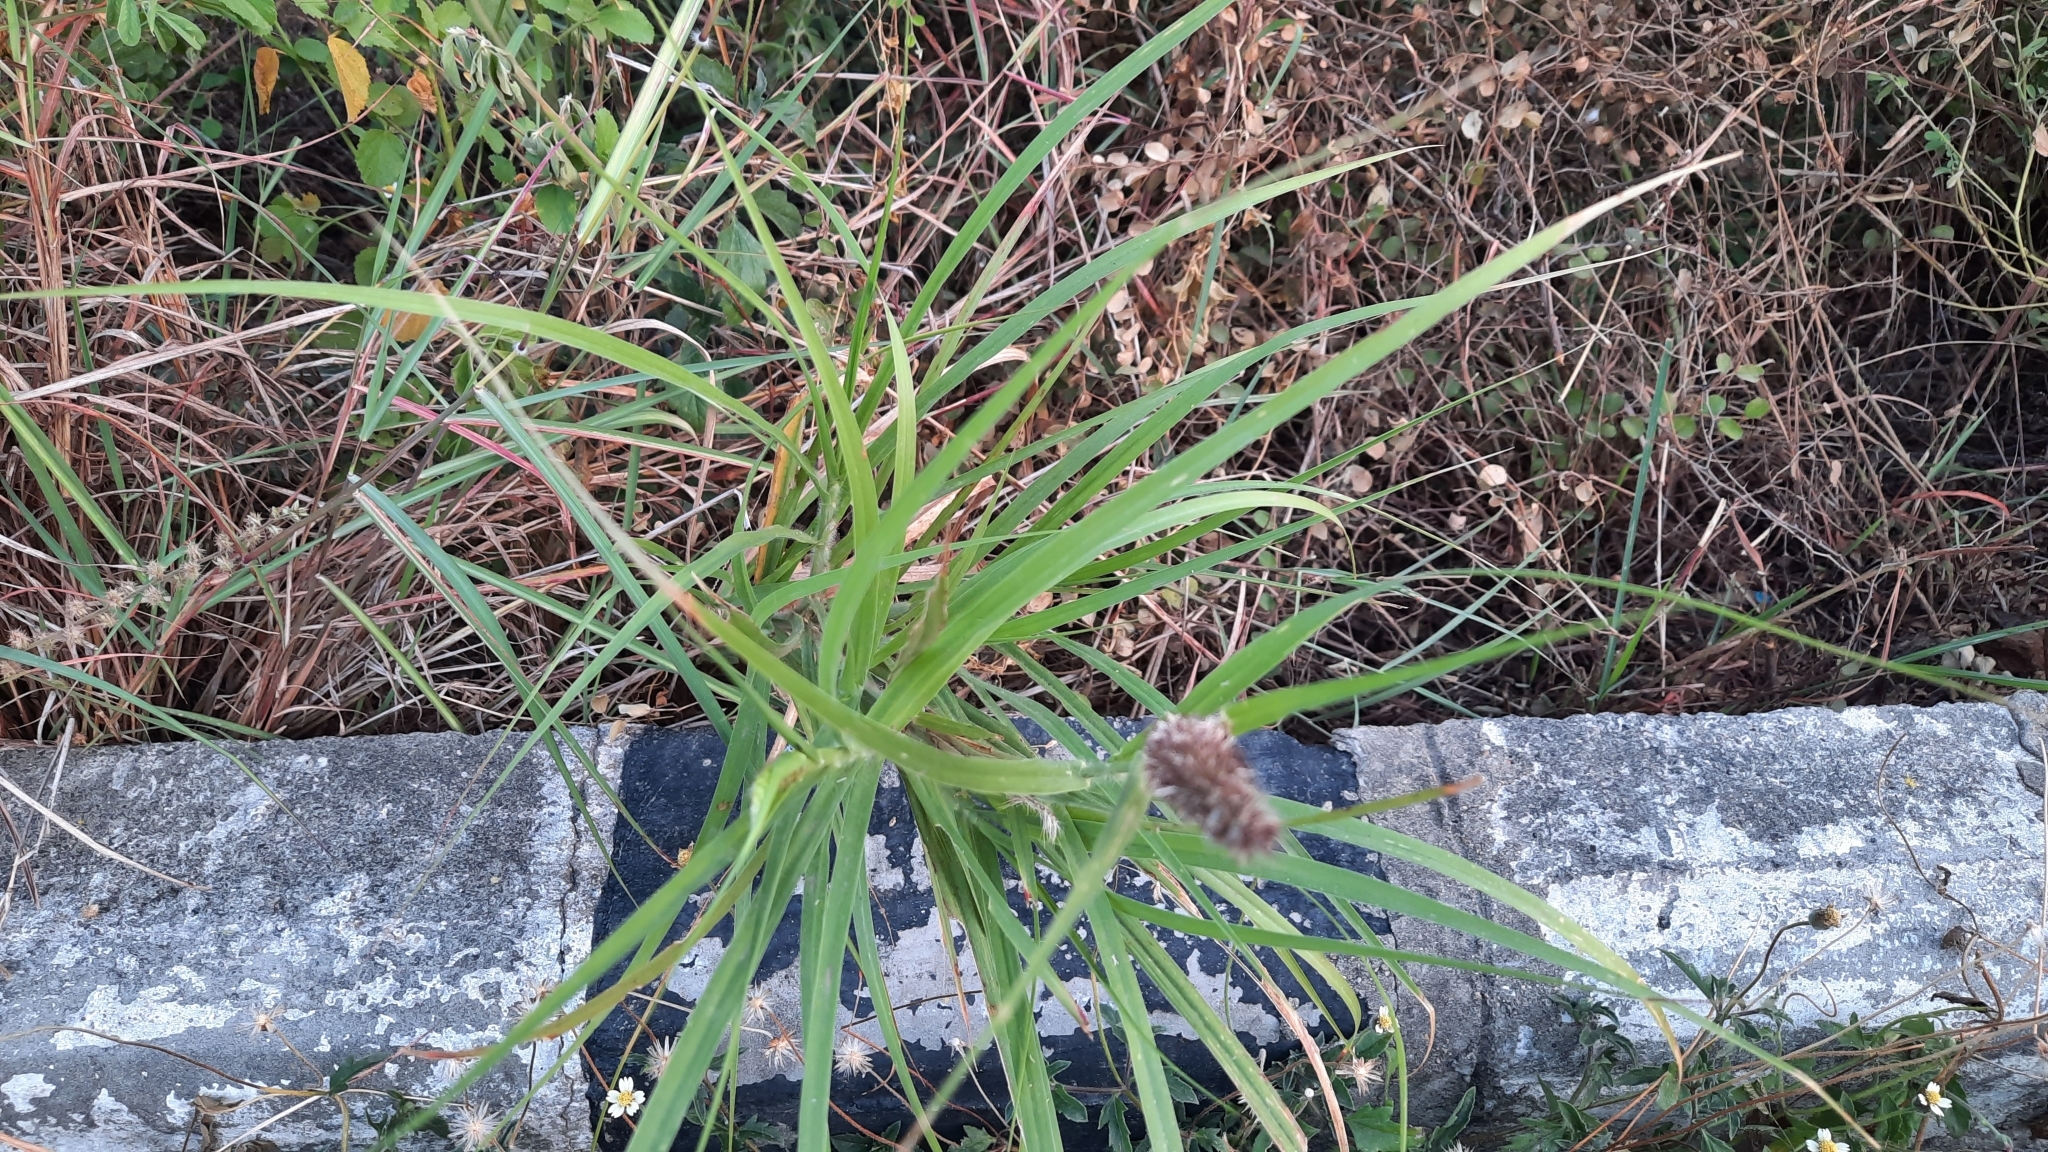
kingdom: Plantae
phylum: Tracheophyta
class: Liliopsida
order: Poales
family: Poaceae
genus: Cenchrus
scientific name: Cenchrus ciliaris
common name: Buffelgrass
